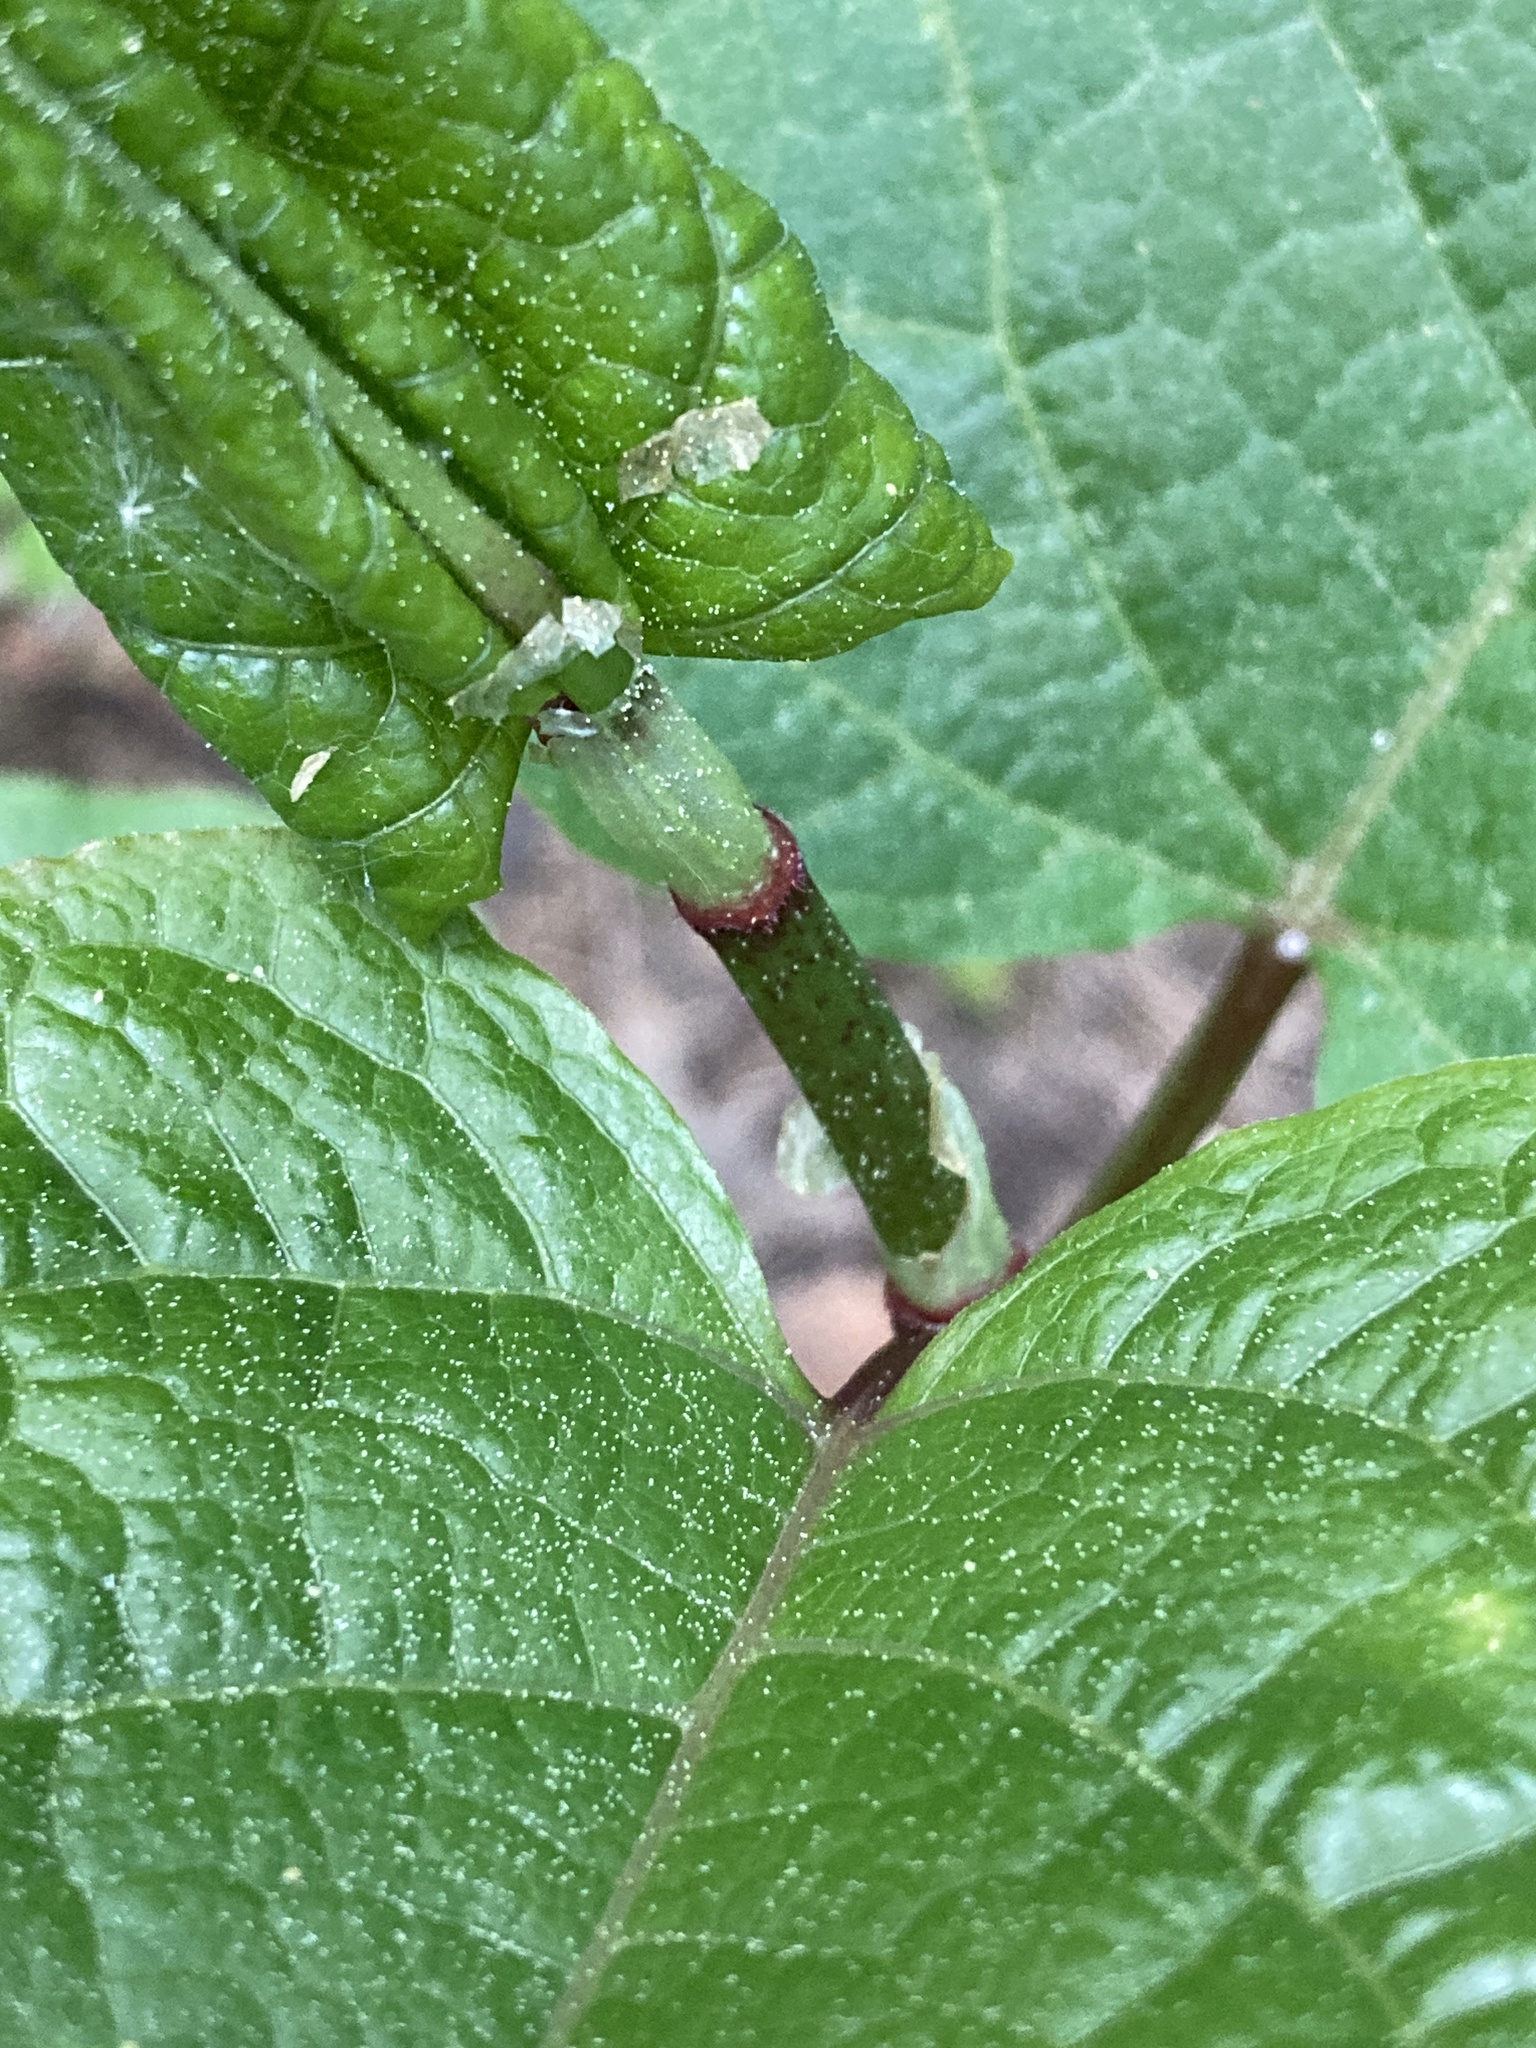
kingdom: Plantae
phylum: Tracheophyta
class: Magnoliopsida
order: Caryophyllales
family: Polygonaceae
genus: Reynoutria
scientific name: Reynoutria bohemica
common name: Bohemian knotweed
